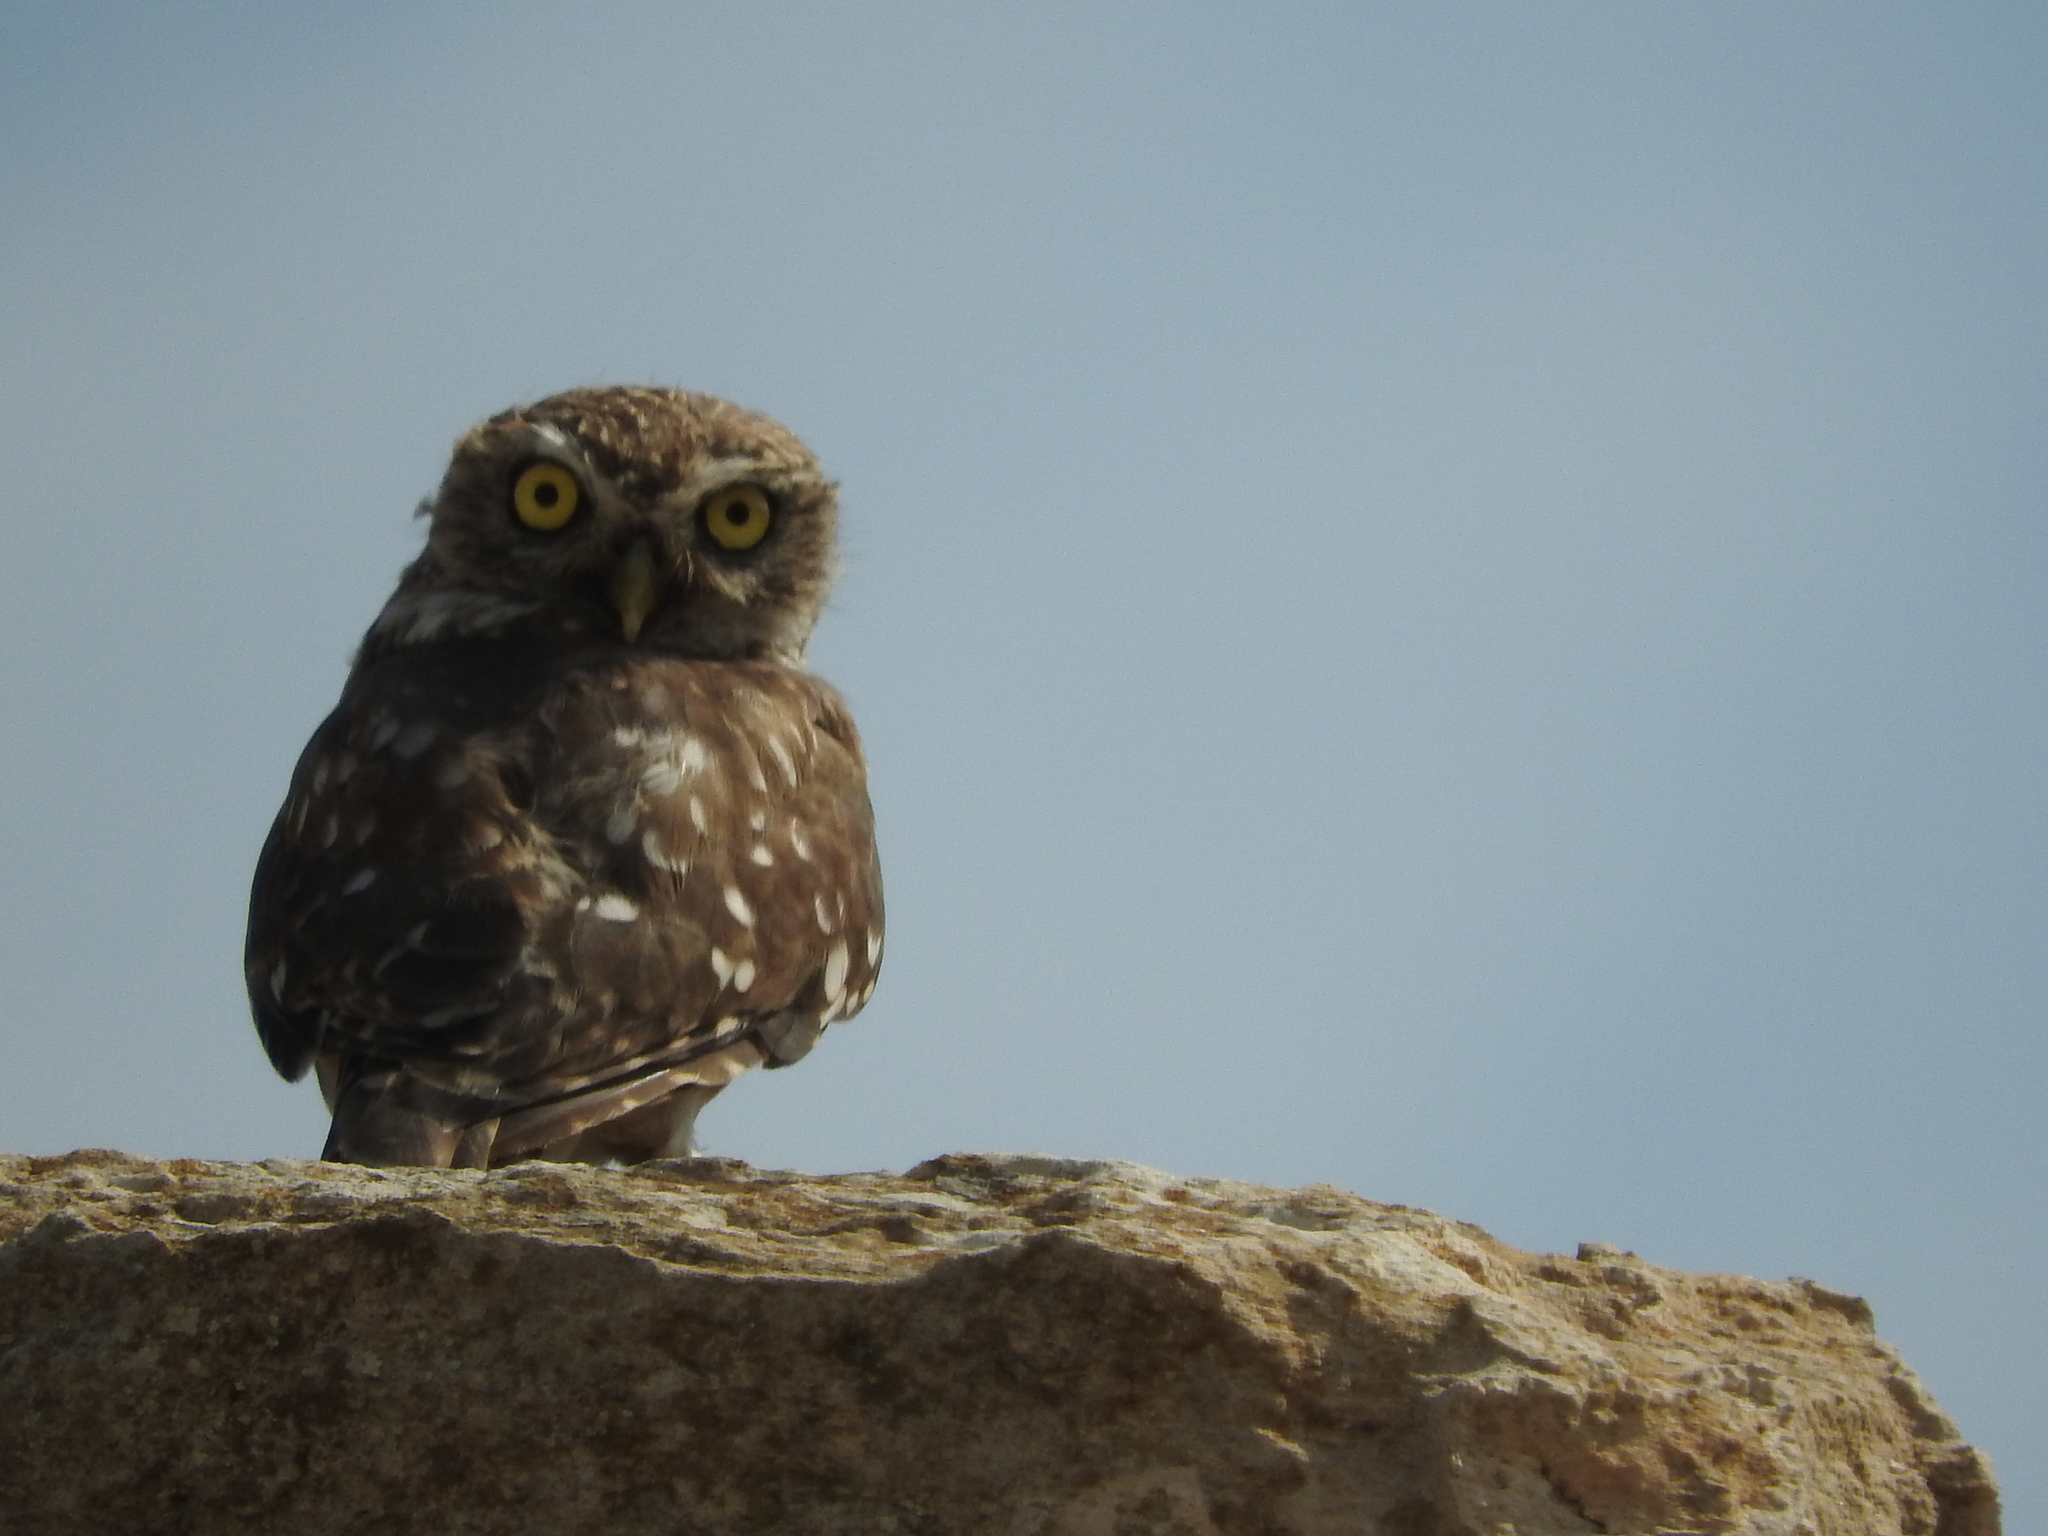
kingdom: Animalia
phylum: Chordata
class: Aves
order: Strigiformes
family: Strigidae
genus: Athene
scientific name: Athene noctua
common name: Little owl
